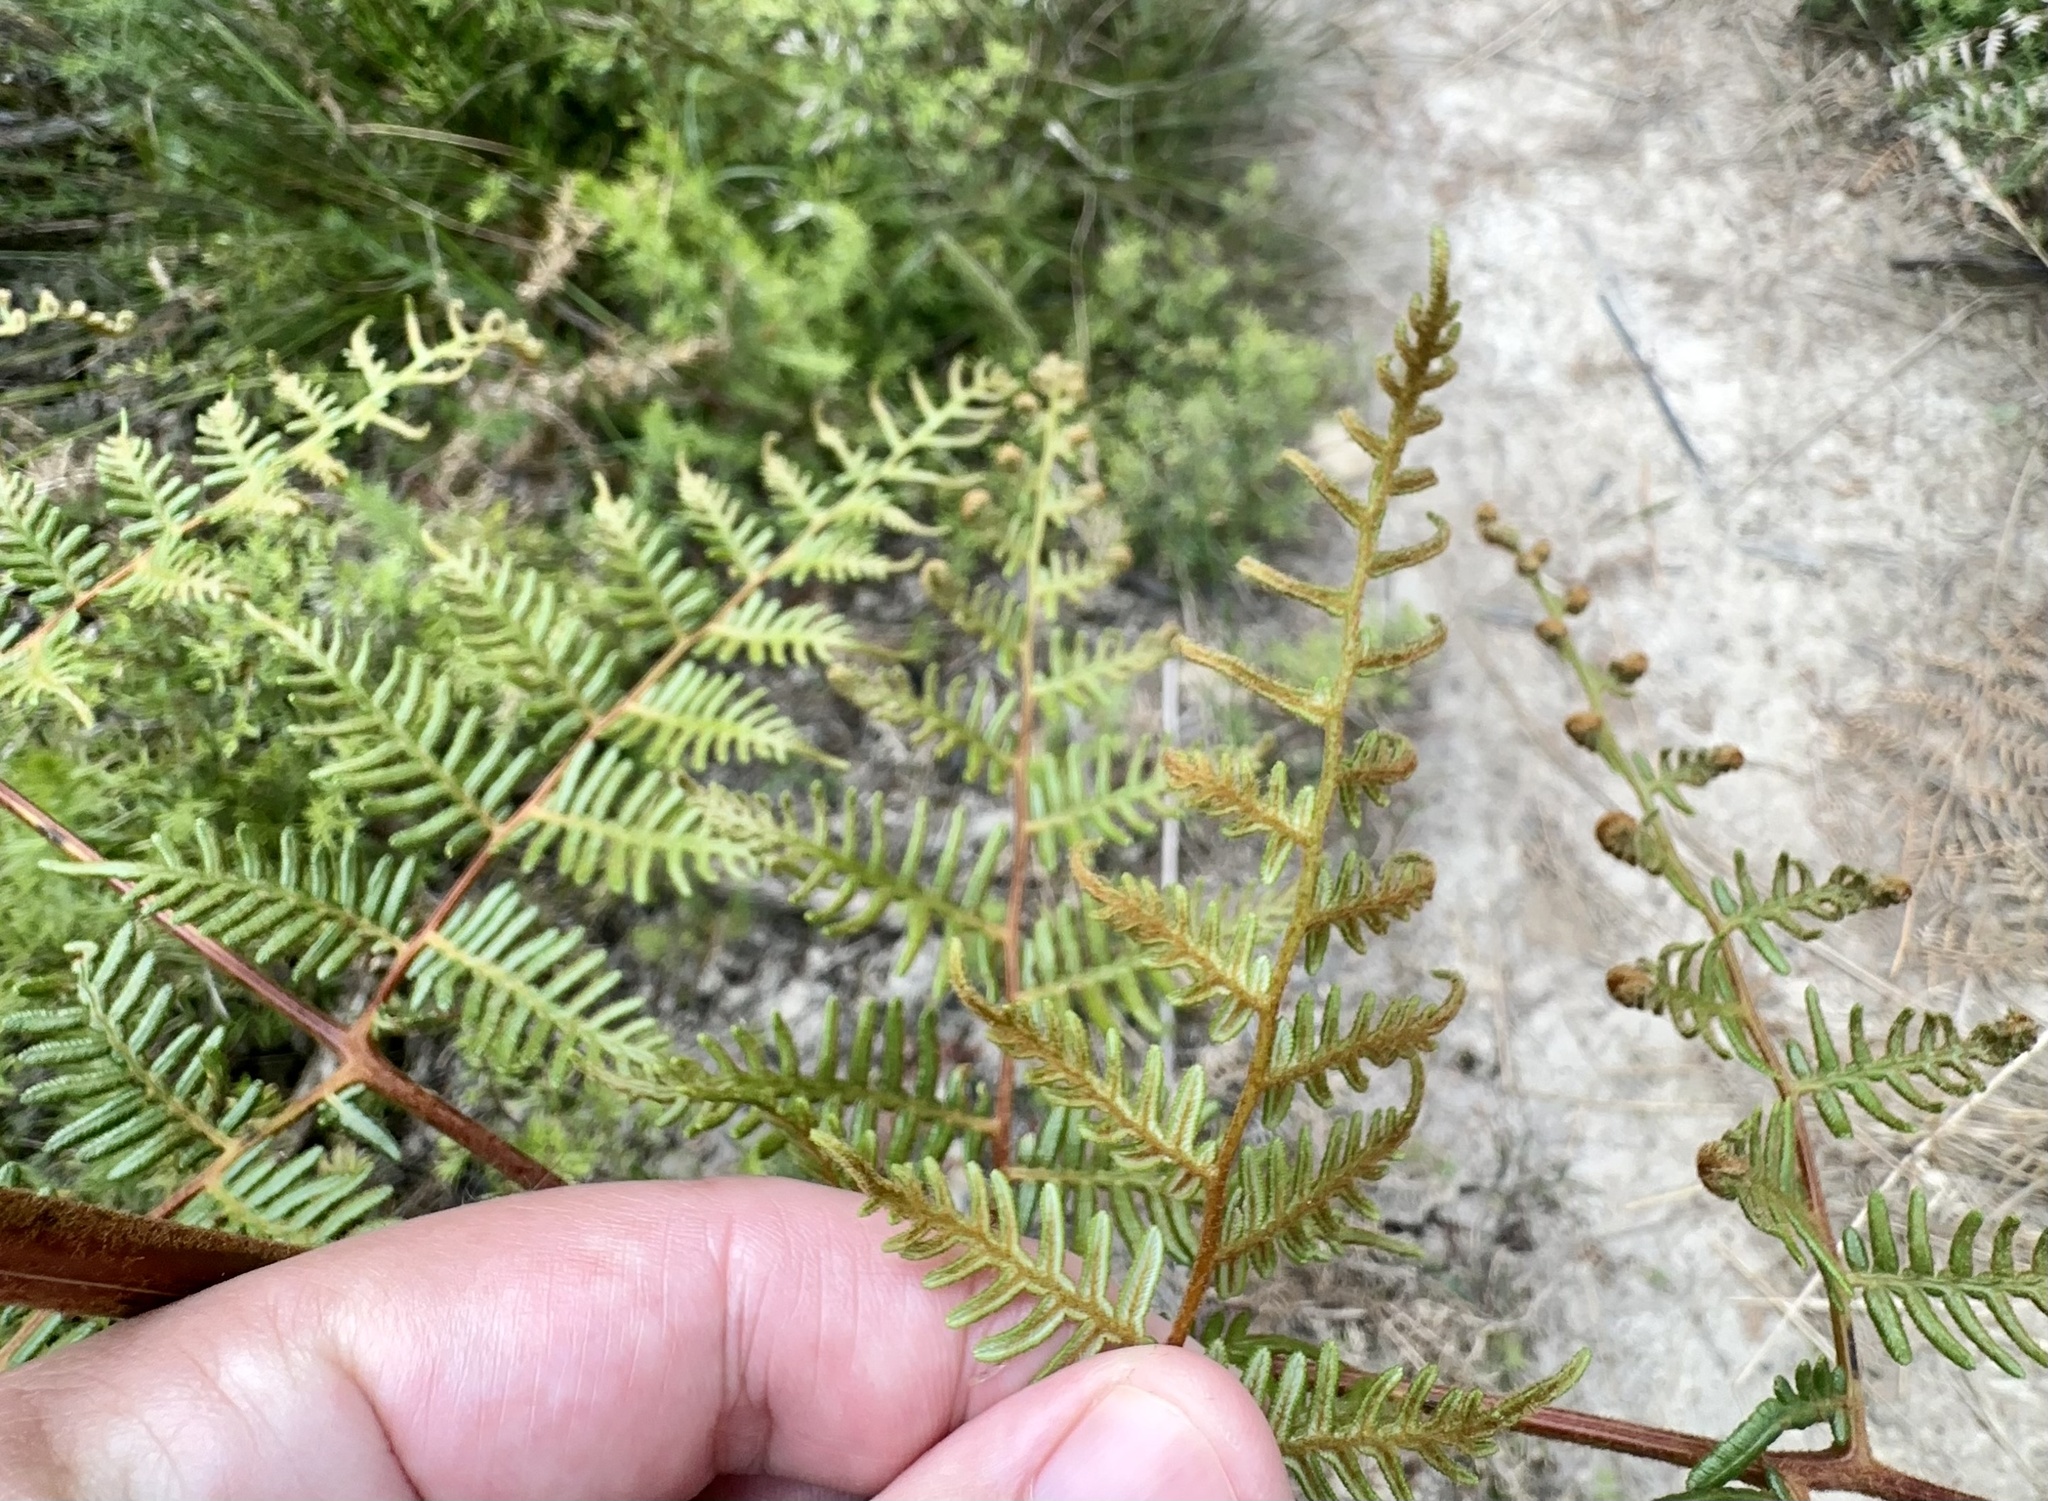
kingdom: Plantae
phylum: Tracheophyta
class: Polypodiopsida
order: Polypodiales
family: Dennstaedtiaceae
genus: Pteridium
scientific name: Pteridium esculentum
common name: Bracken fern
